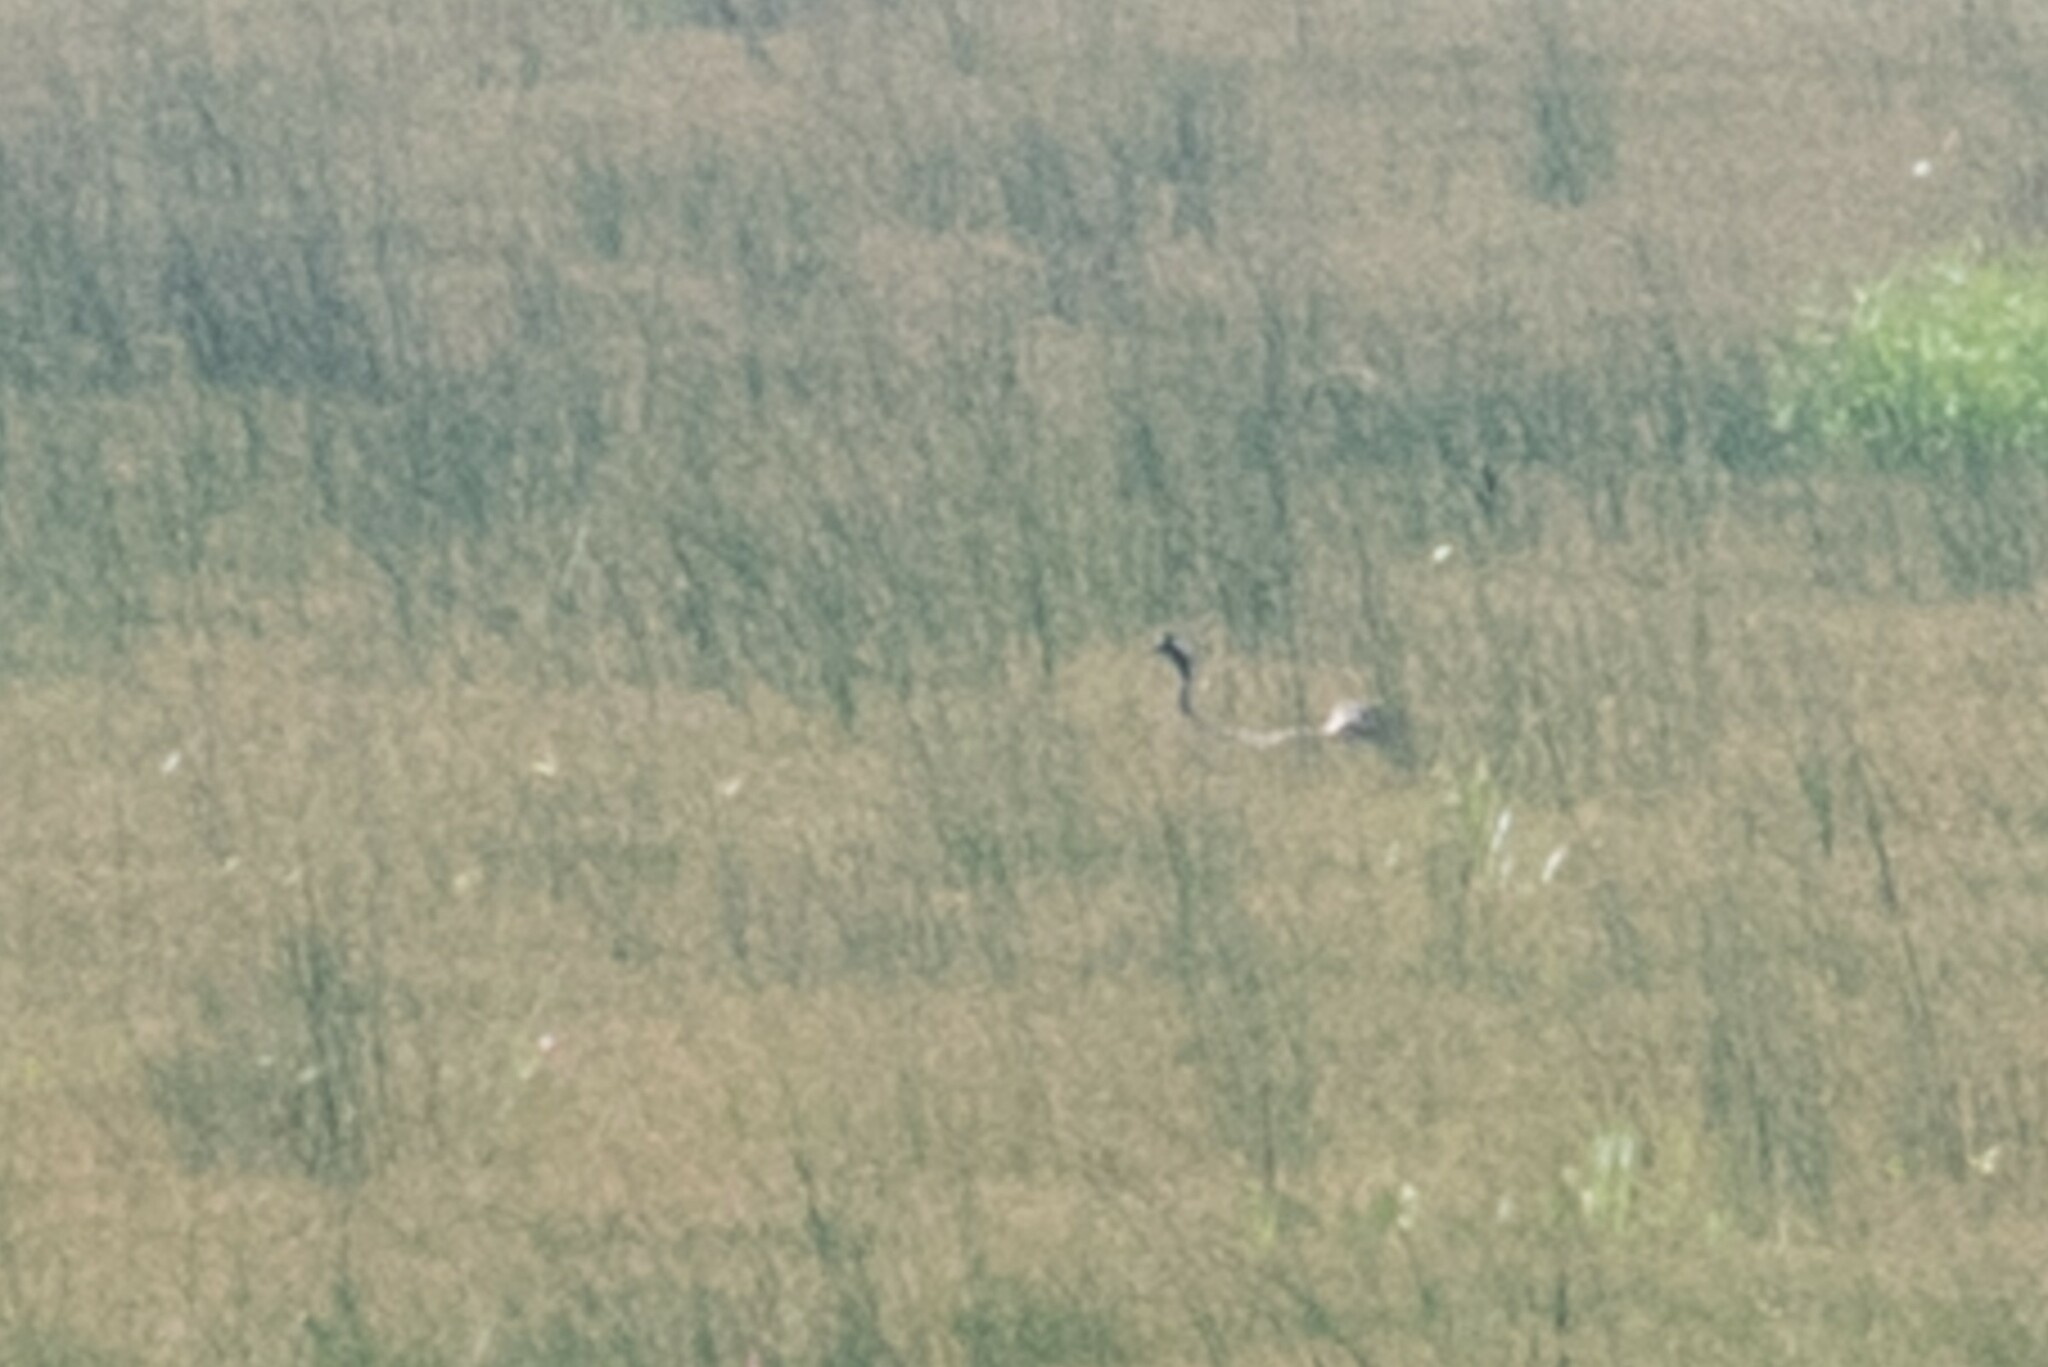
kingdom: Animalia
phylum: Chordata
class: Aves
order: Gruiformes
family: Gruidae
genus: Grus
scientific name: Grus grus
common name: Common crane
